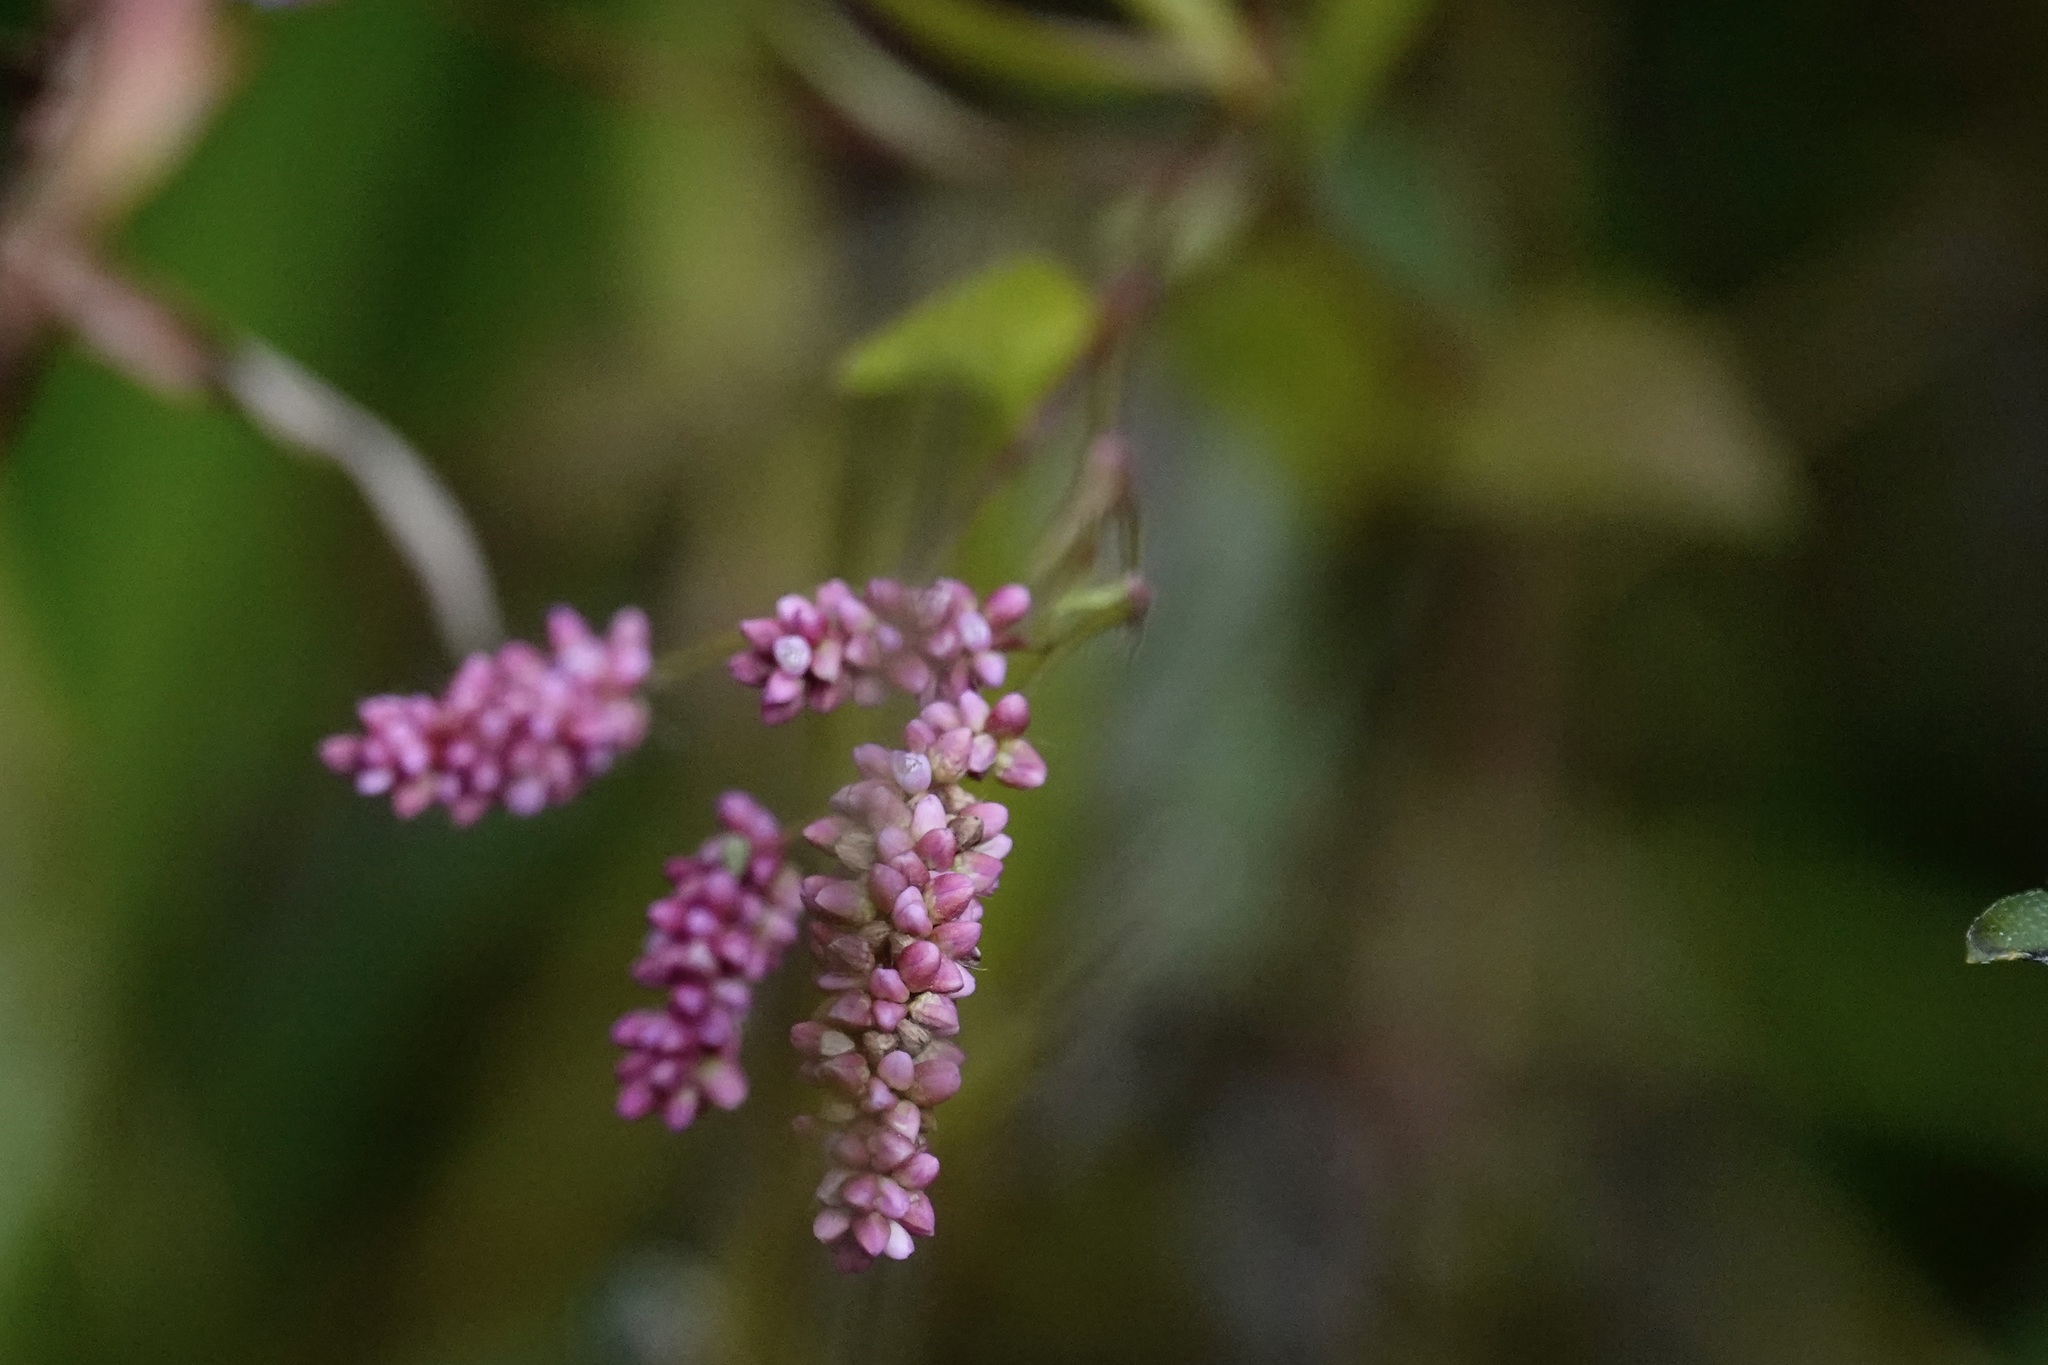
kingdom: Plantae
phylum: Tracheophyta
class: Magnoliopsida
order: Caryophyllales
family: Polygonaceae
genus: Persicaria
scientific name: Persicaria longiseta
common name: Bristly lady's-thumb
